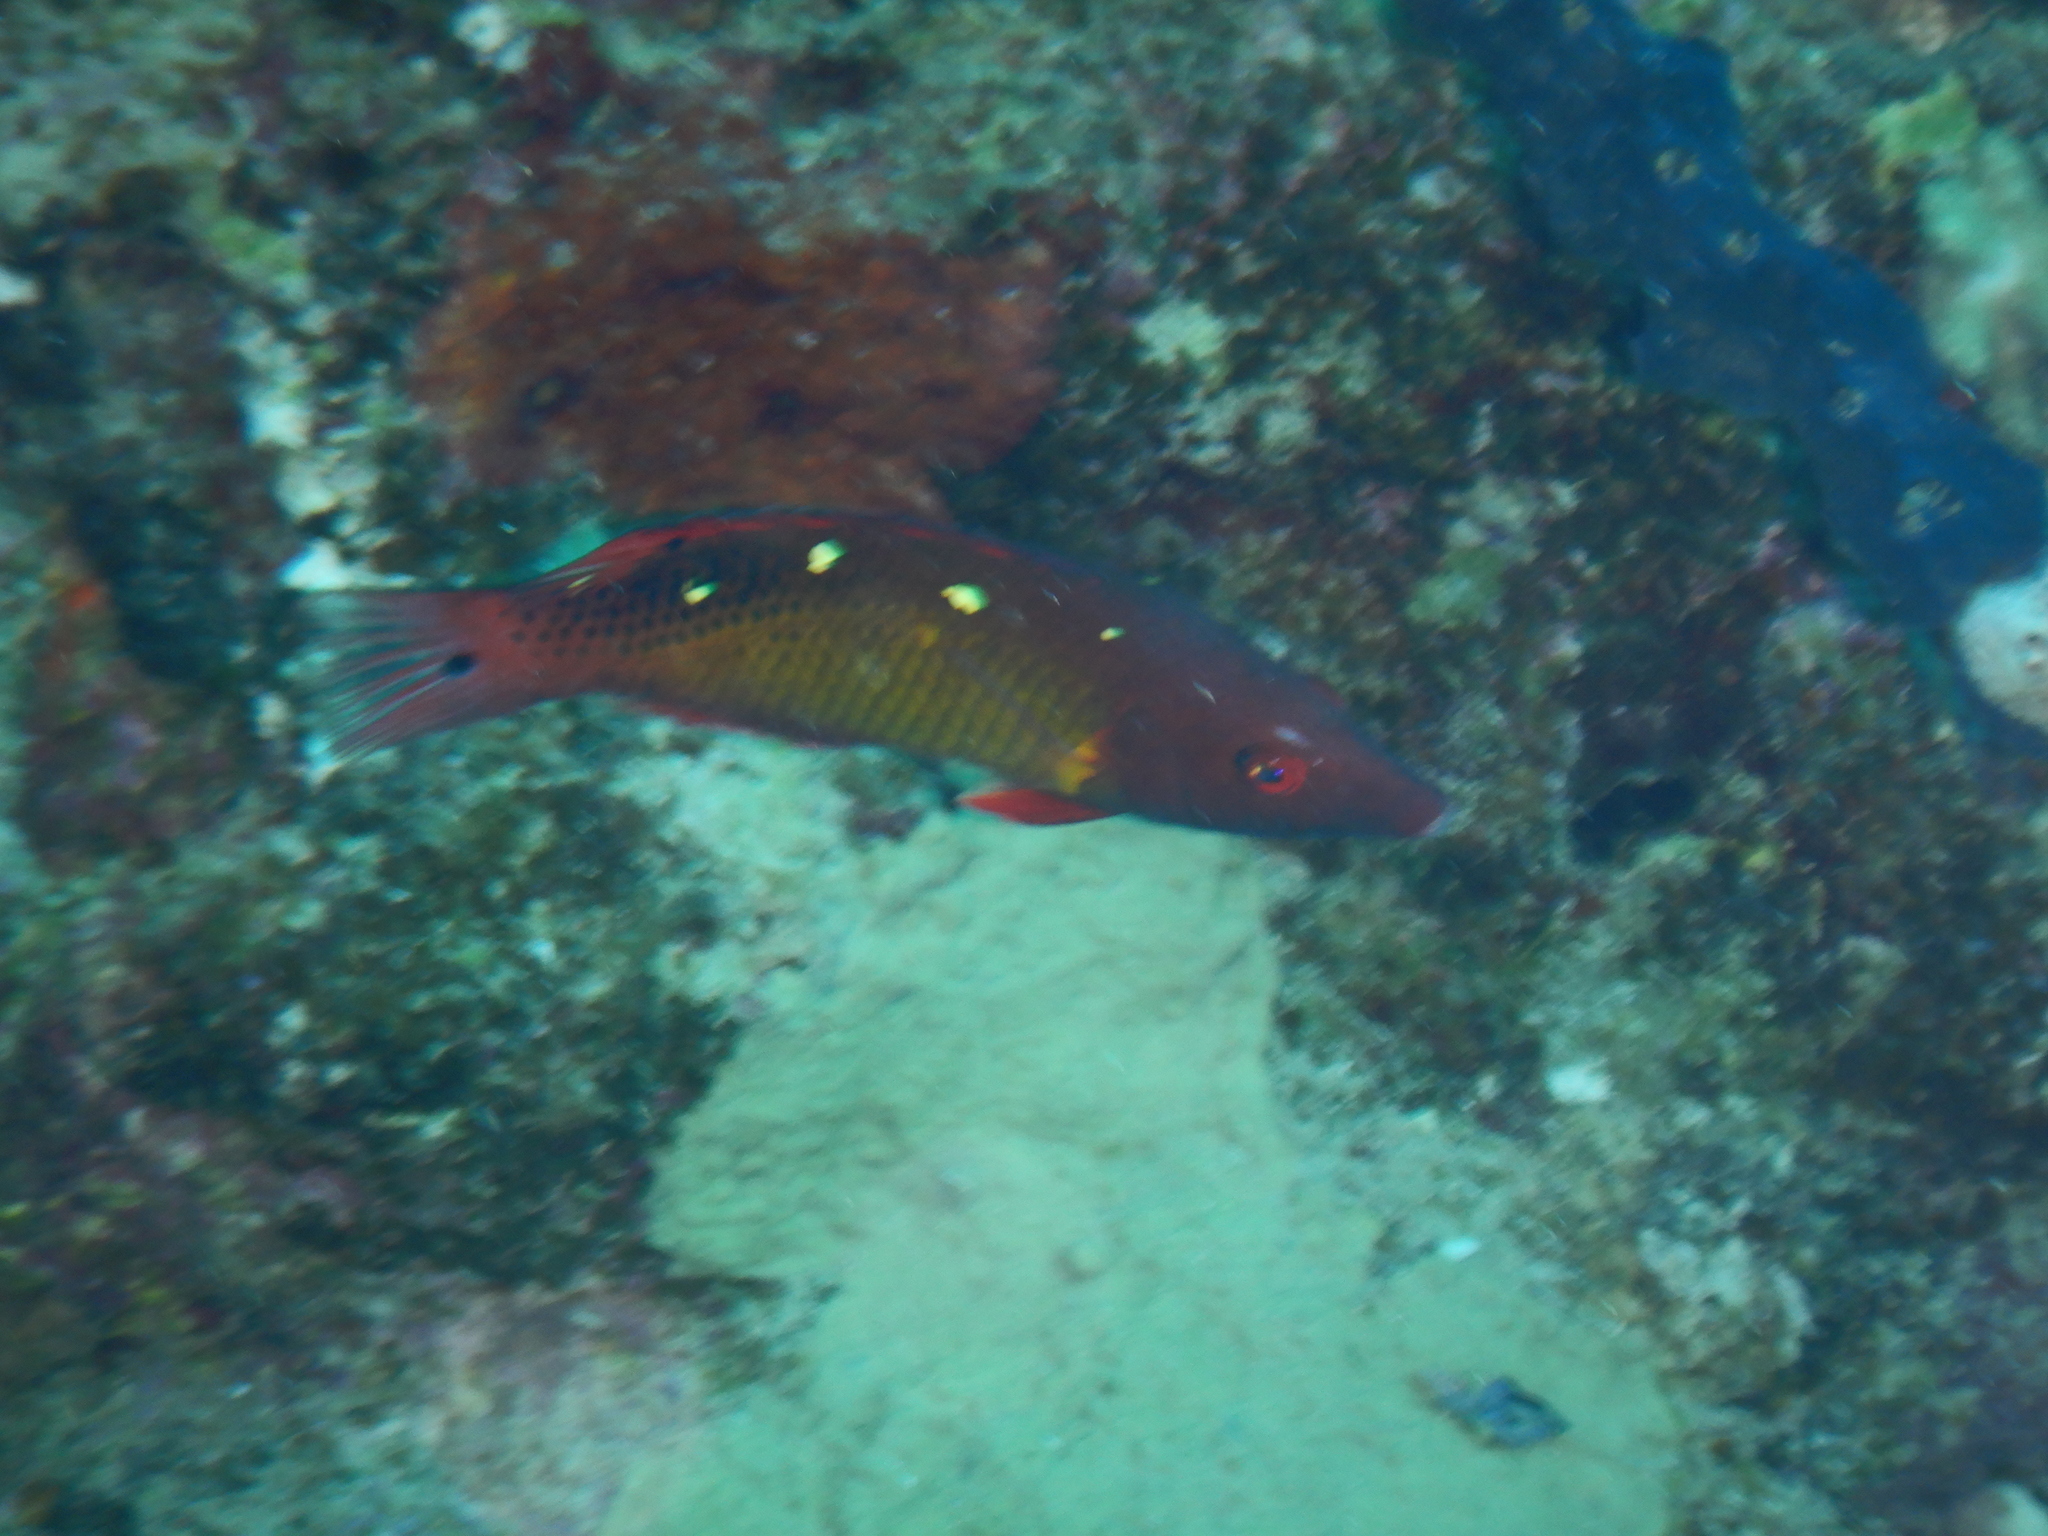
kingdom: Animalia
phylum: Chordata
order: Perciformes
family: Labridae
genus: Bodianus
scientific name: Bodianus diana
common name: Diana's hogfish
